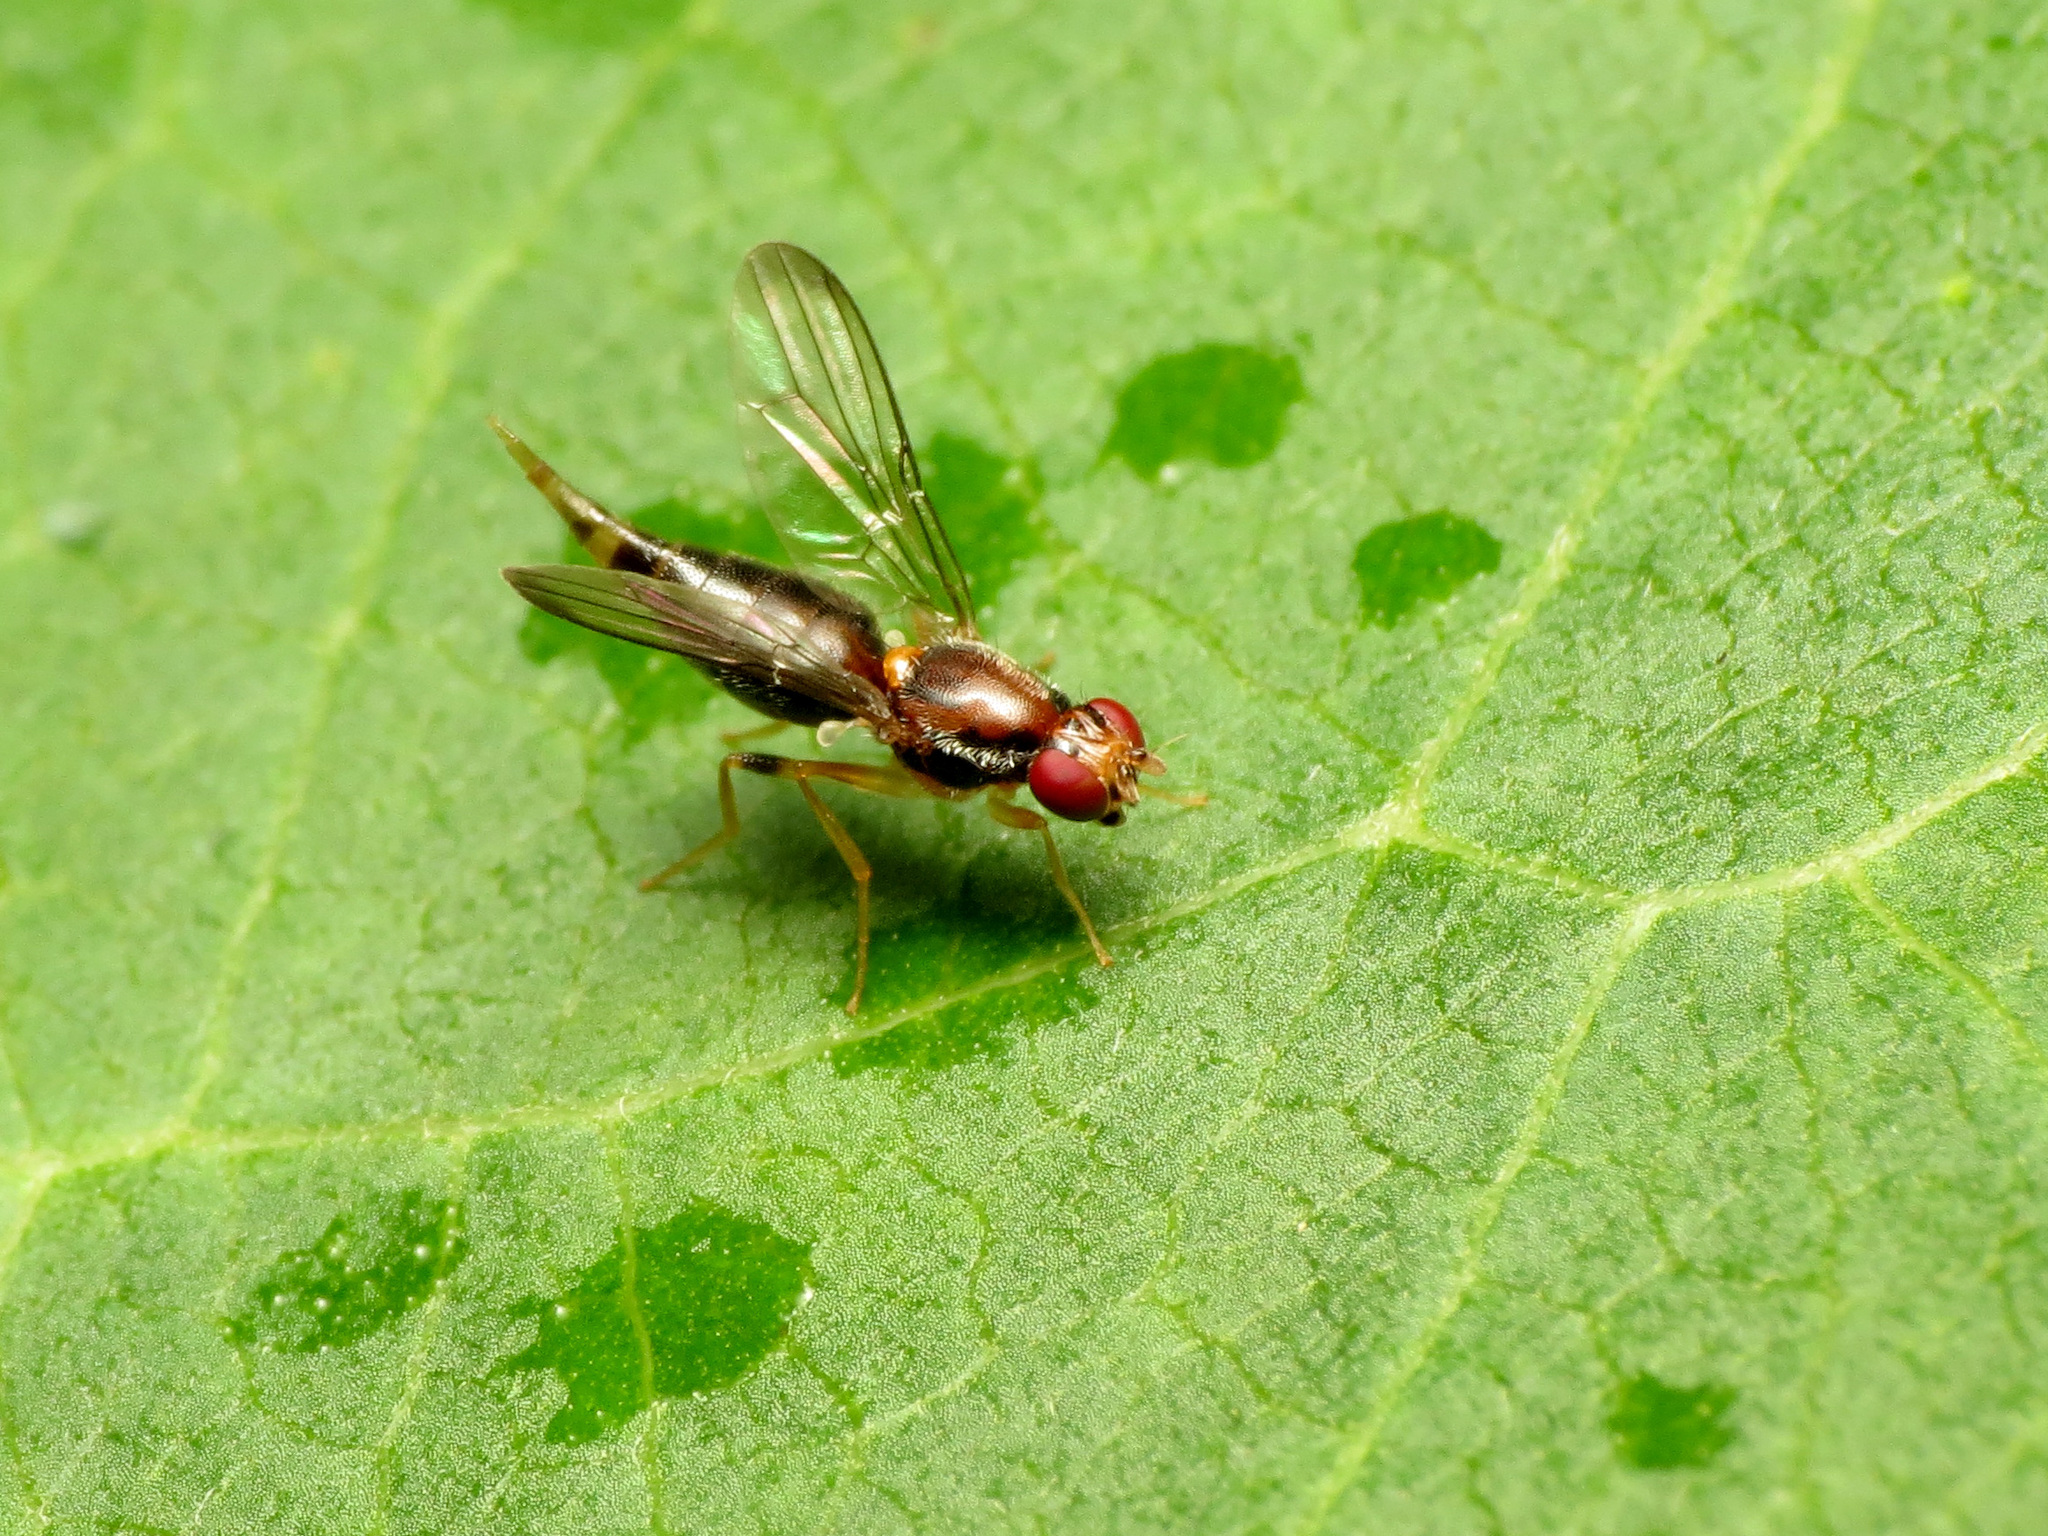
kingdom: Animalia
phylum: Arthropoda
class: Insecta
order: Diptera
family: Psilidae
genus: Chyliza
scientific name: Chyliza apicalis
